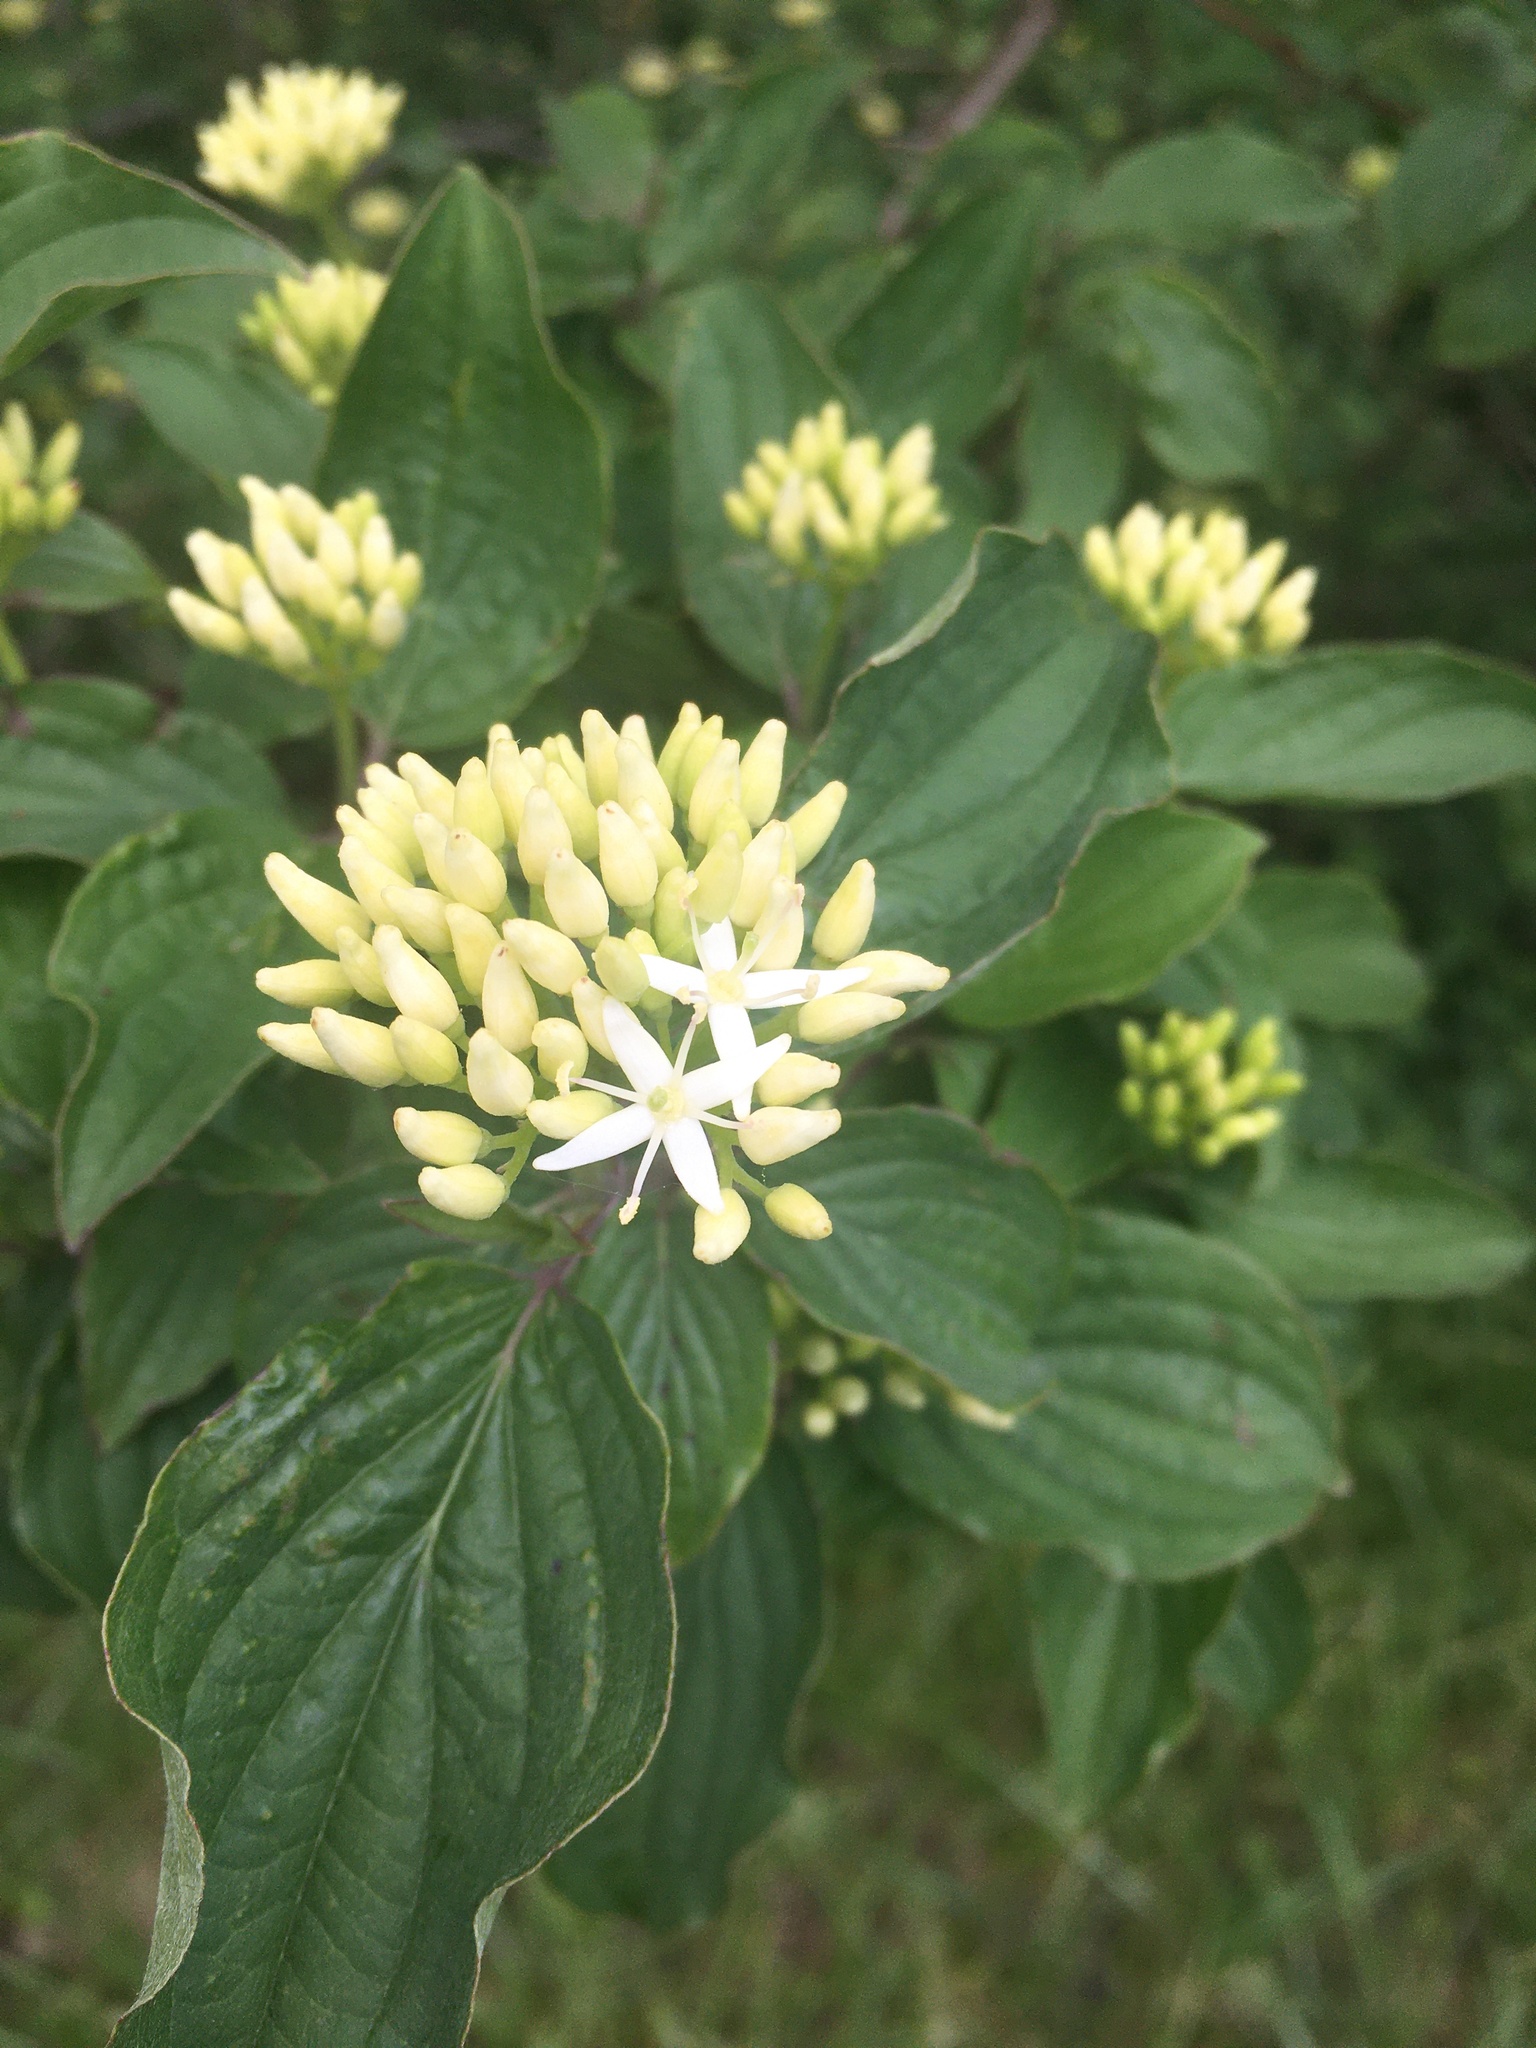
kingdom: Plantae
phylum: Tracheophyta
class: Magnoliopsida
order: Cornales
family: Cornaceae
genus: Cornus
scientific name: Cornus sanguinea
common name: Dogwood
